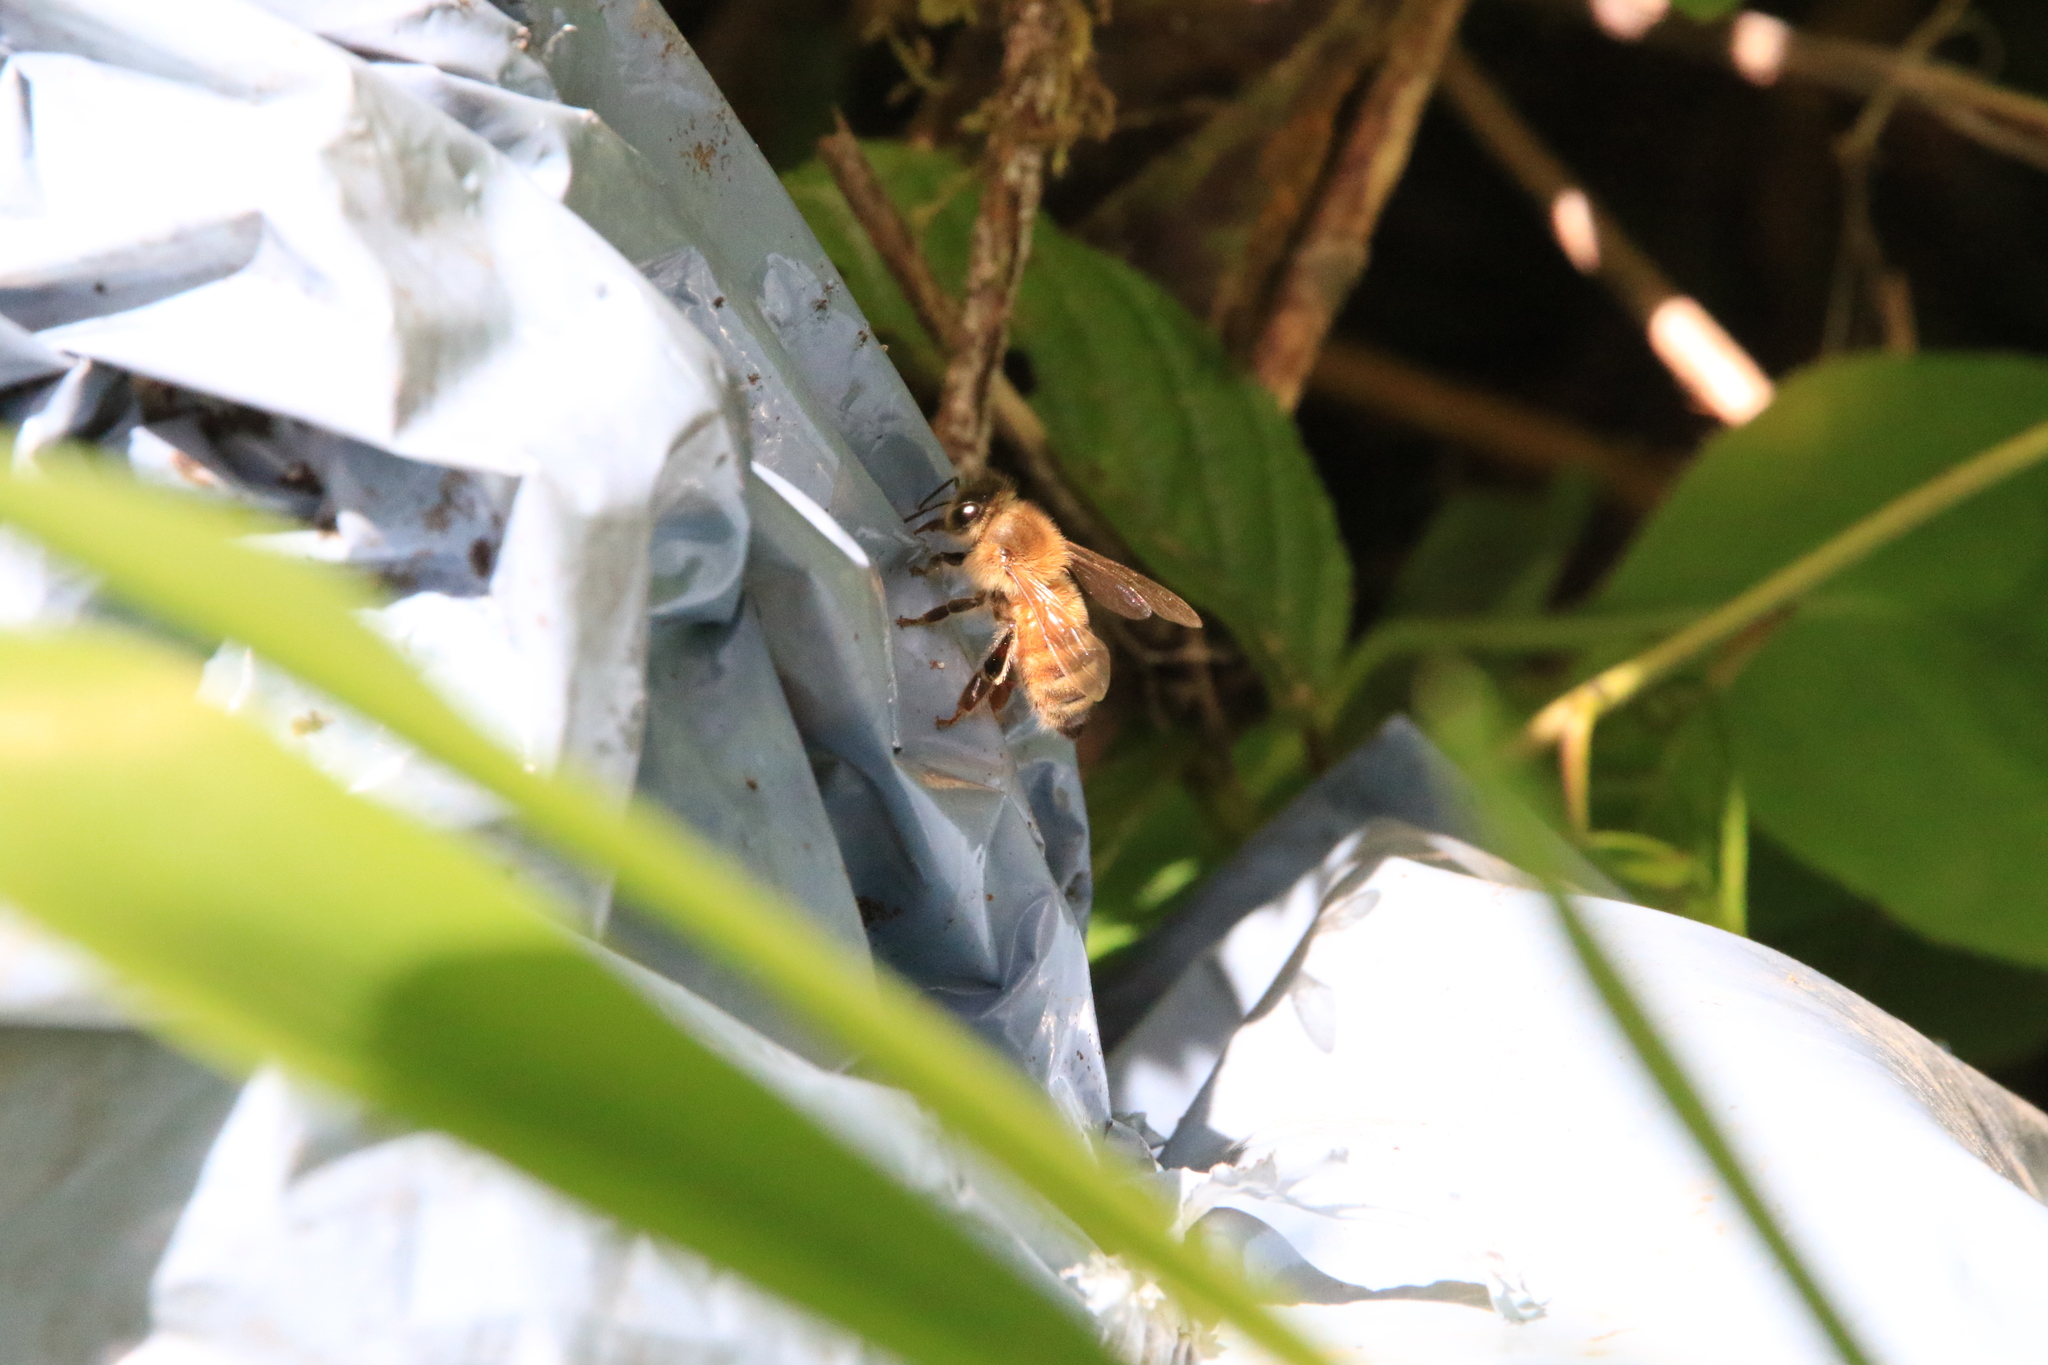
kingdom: Animalia
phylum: Arthropoda
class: Insecta
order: Hymenoptera
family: Apidae
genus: Apis
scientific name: Apis mellifera
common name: Honey bee
